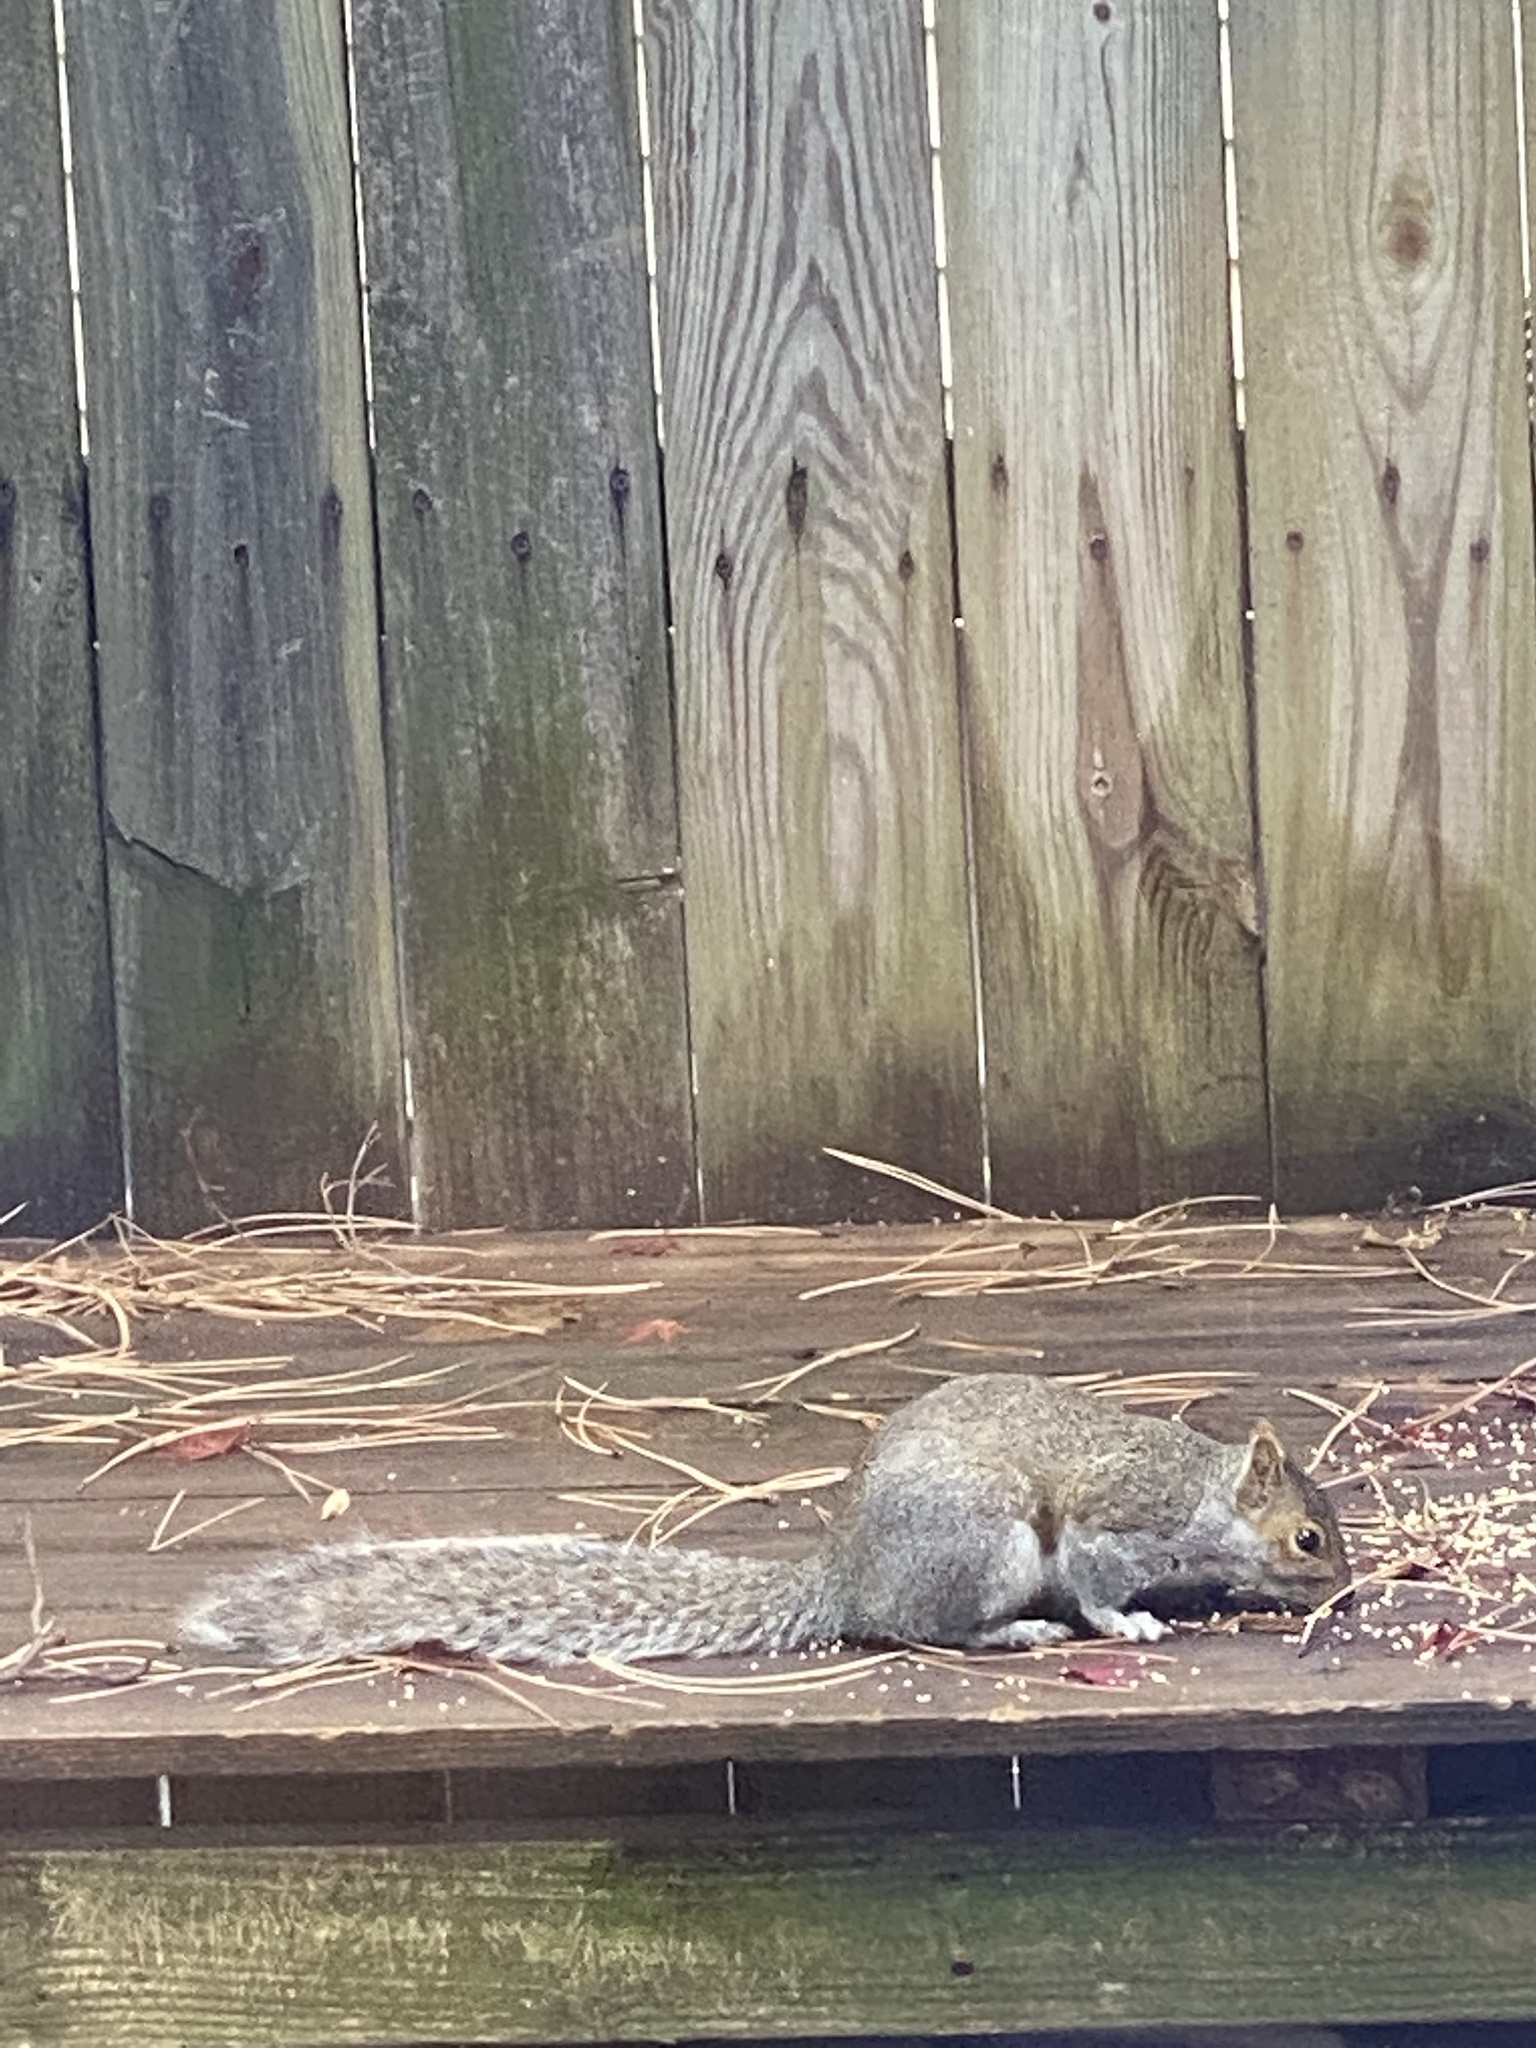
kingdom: Animalia
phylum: Chordata
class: Mammalia
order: Rodentia
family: Sciuridae
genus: Sciurus
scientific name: Sciurus carolinensis
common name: Eastern gray squirrel
